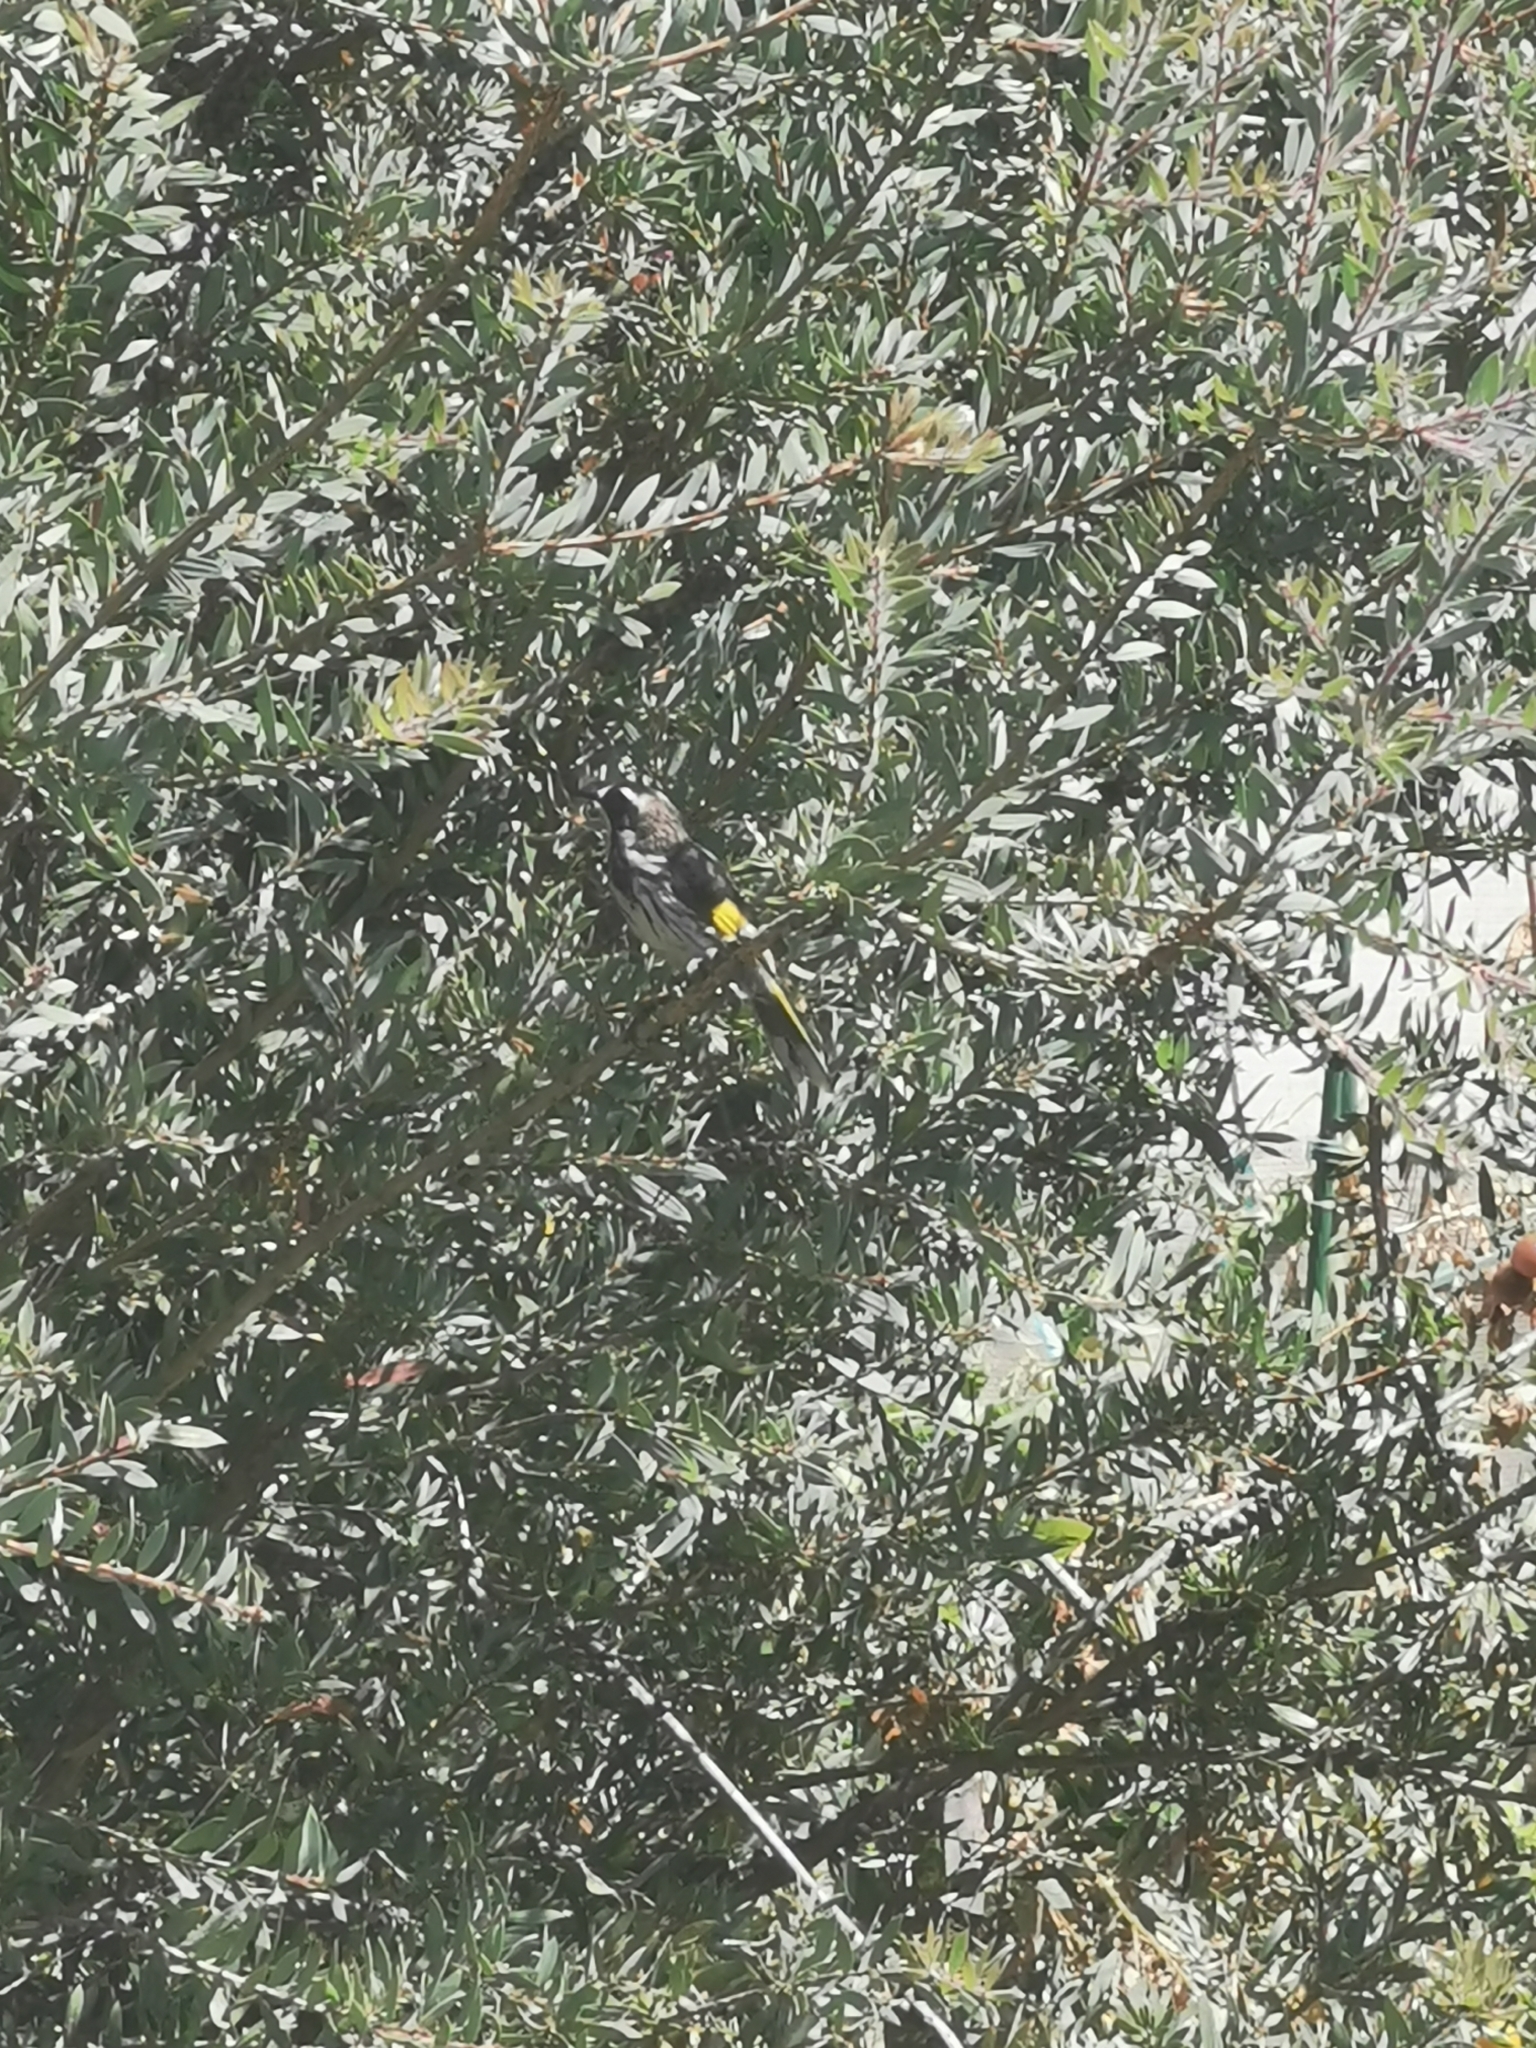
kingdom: Animalia
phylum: Chordata
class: Aves
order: Passeriformes
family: Meliphagidae
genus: Phylidonyris
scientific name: Phylidonyris novaehollandiae
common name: New holland honeyeater
